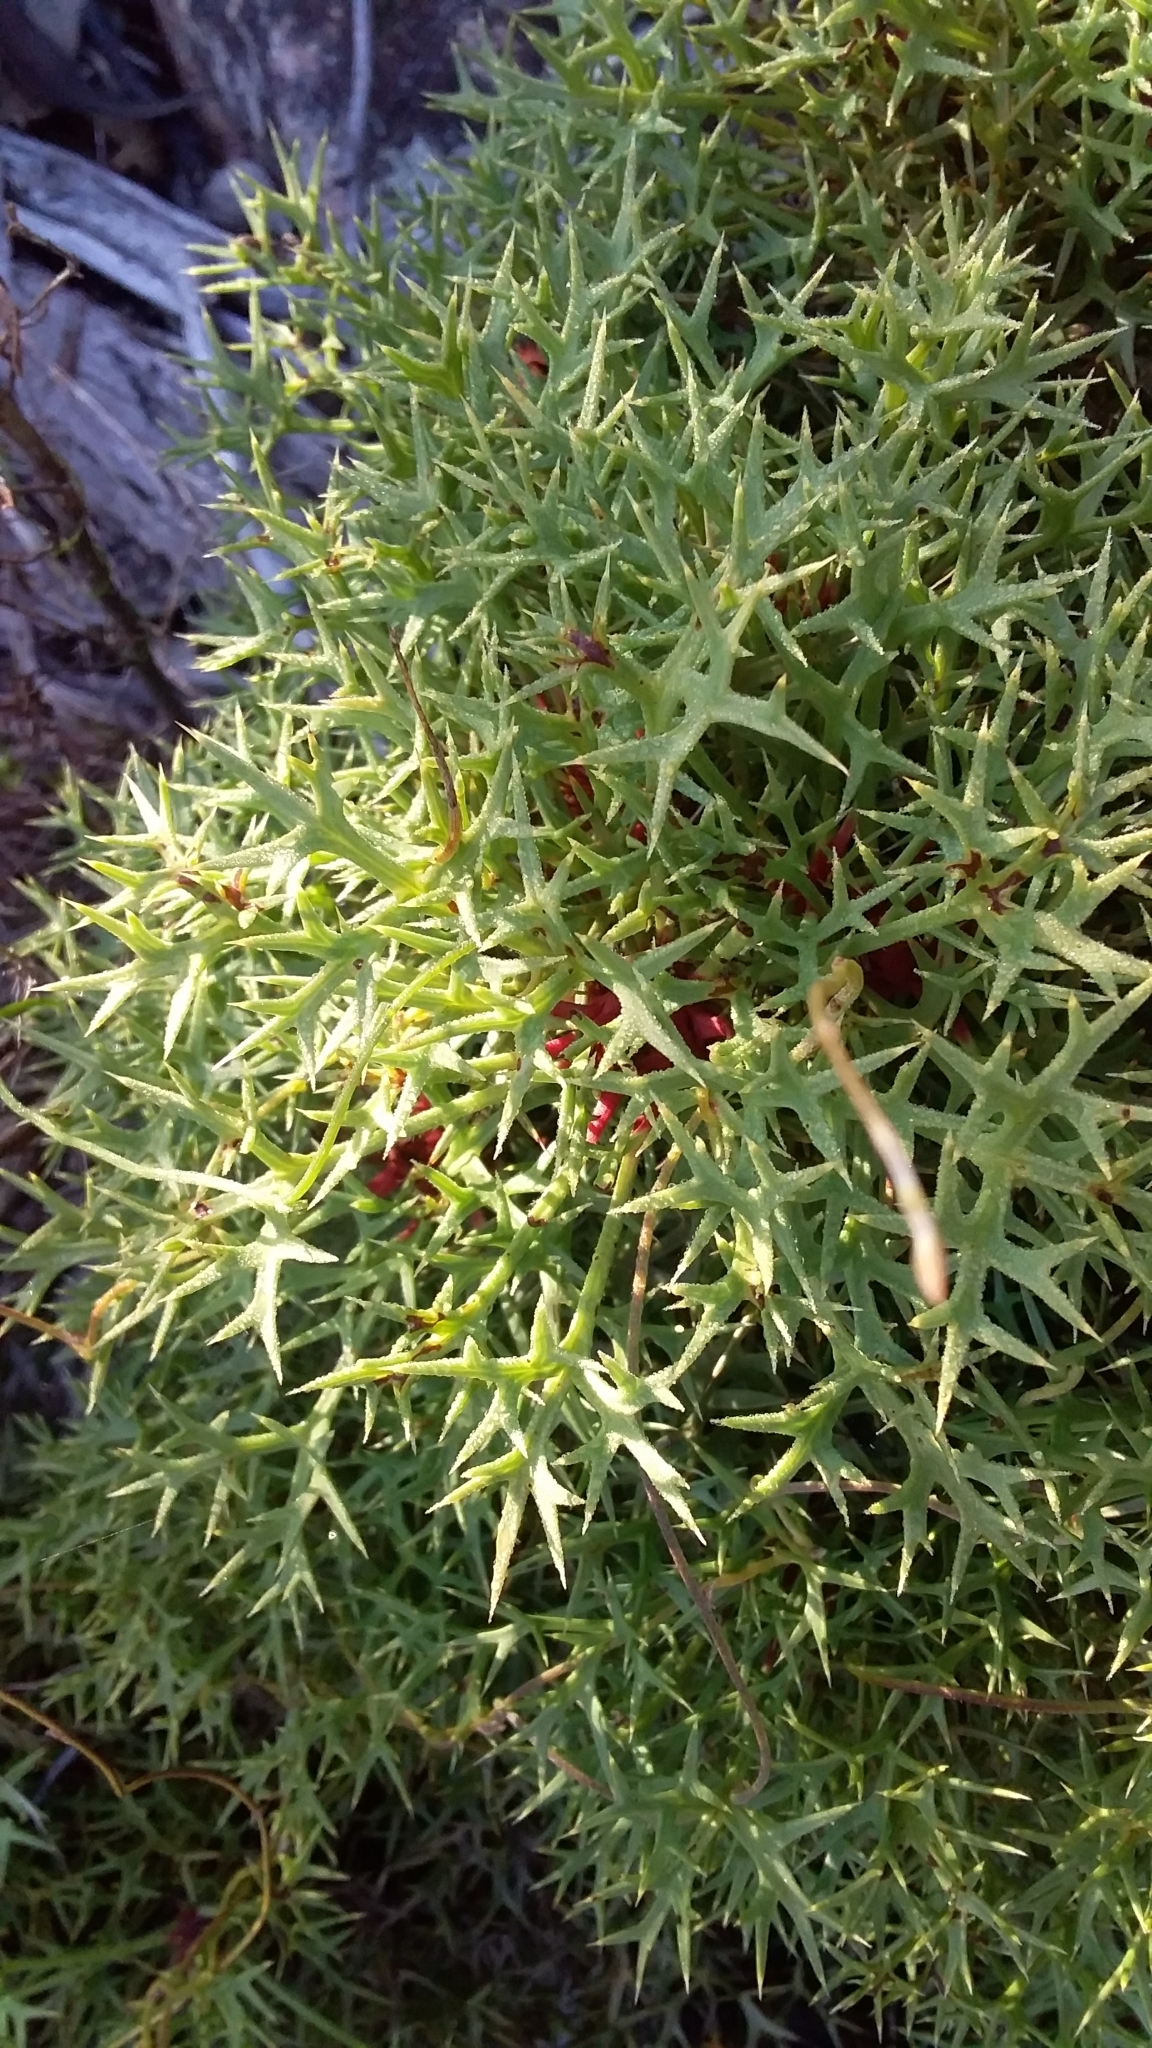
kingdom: Plantae
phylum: Tracheophyta
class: Magnoliopsida
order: Proteales
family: Proteaceae
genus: Isopogon
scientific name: Isopogon ceratophyllus
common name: Horny cone-bush
